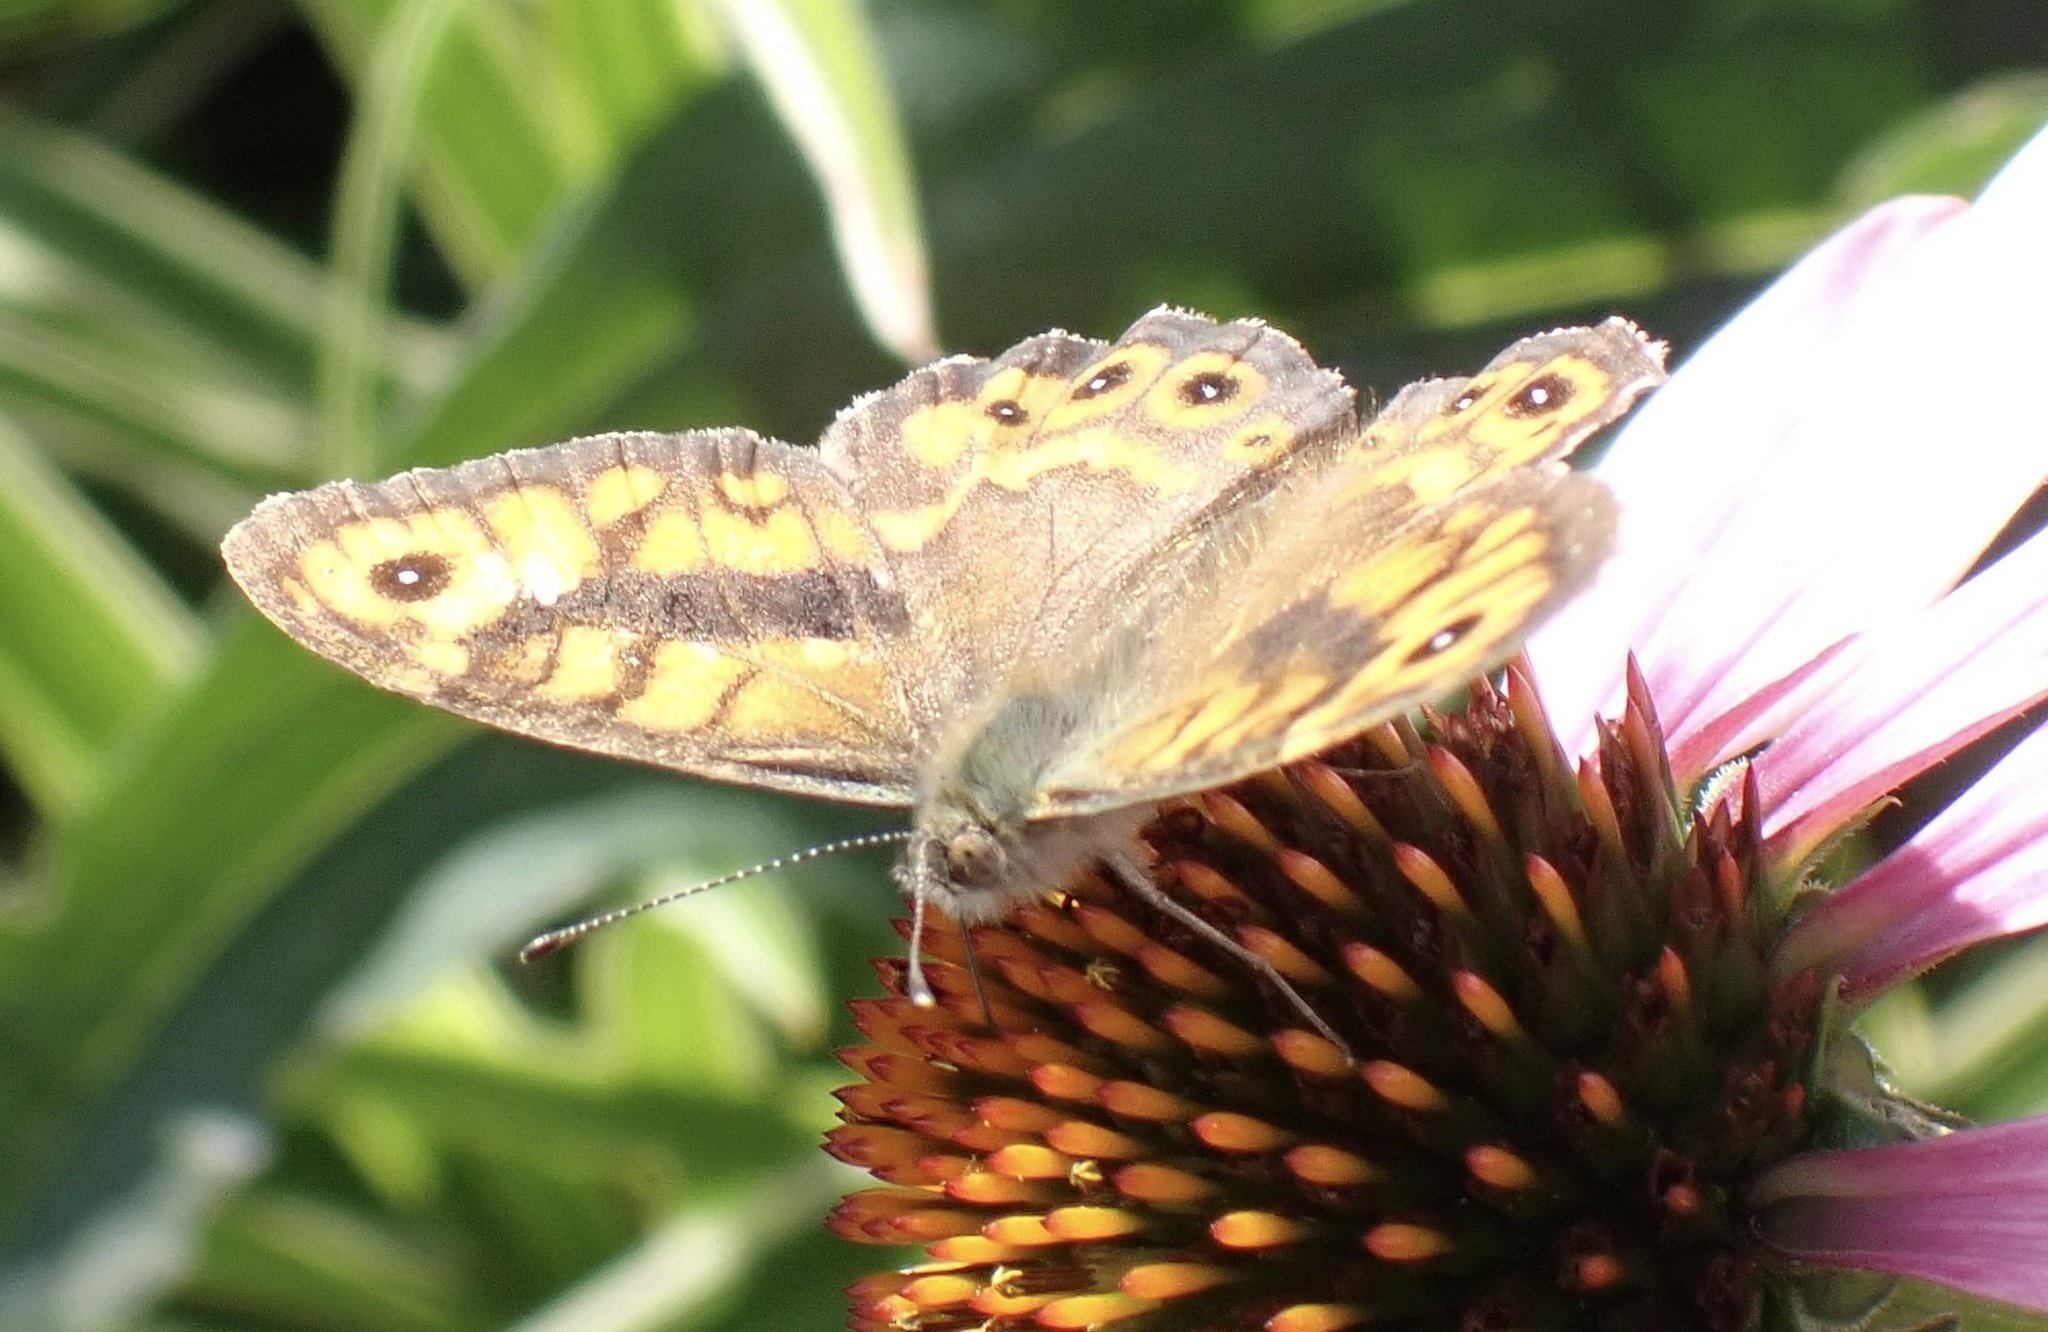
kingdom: Animalia
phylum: Arthropoda
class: Insecta
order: Lepidoptera
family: Nymphalidae
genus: Pararge
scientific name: Pararge Lasiommata megera
